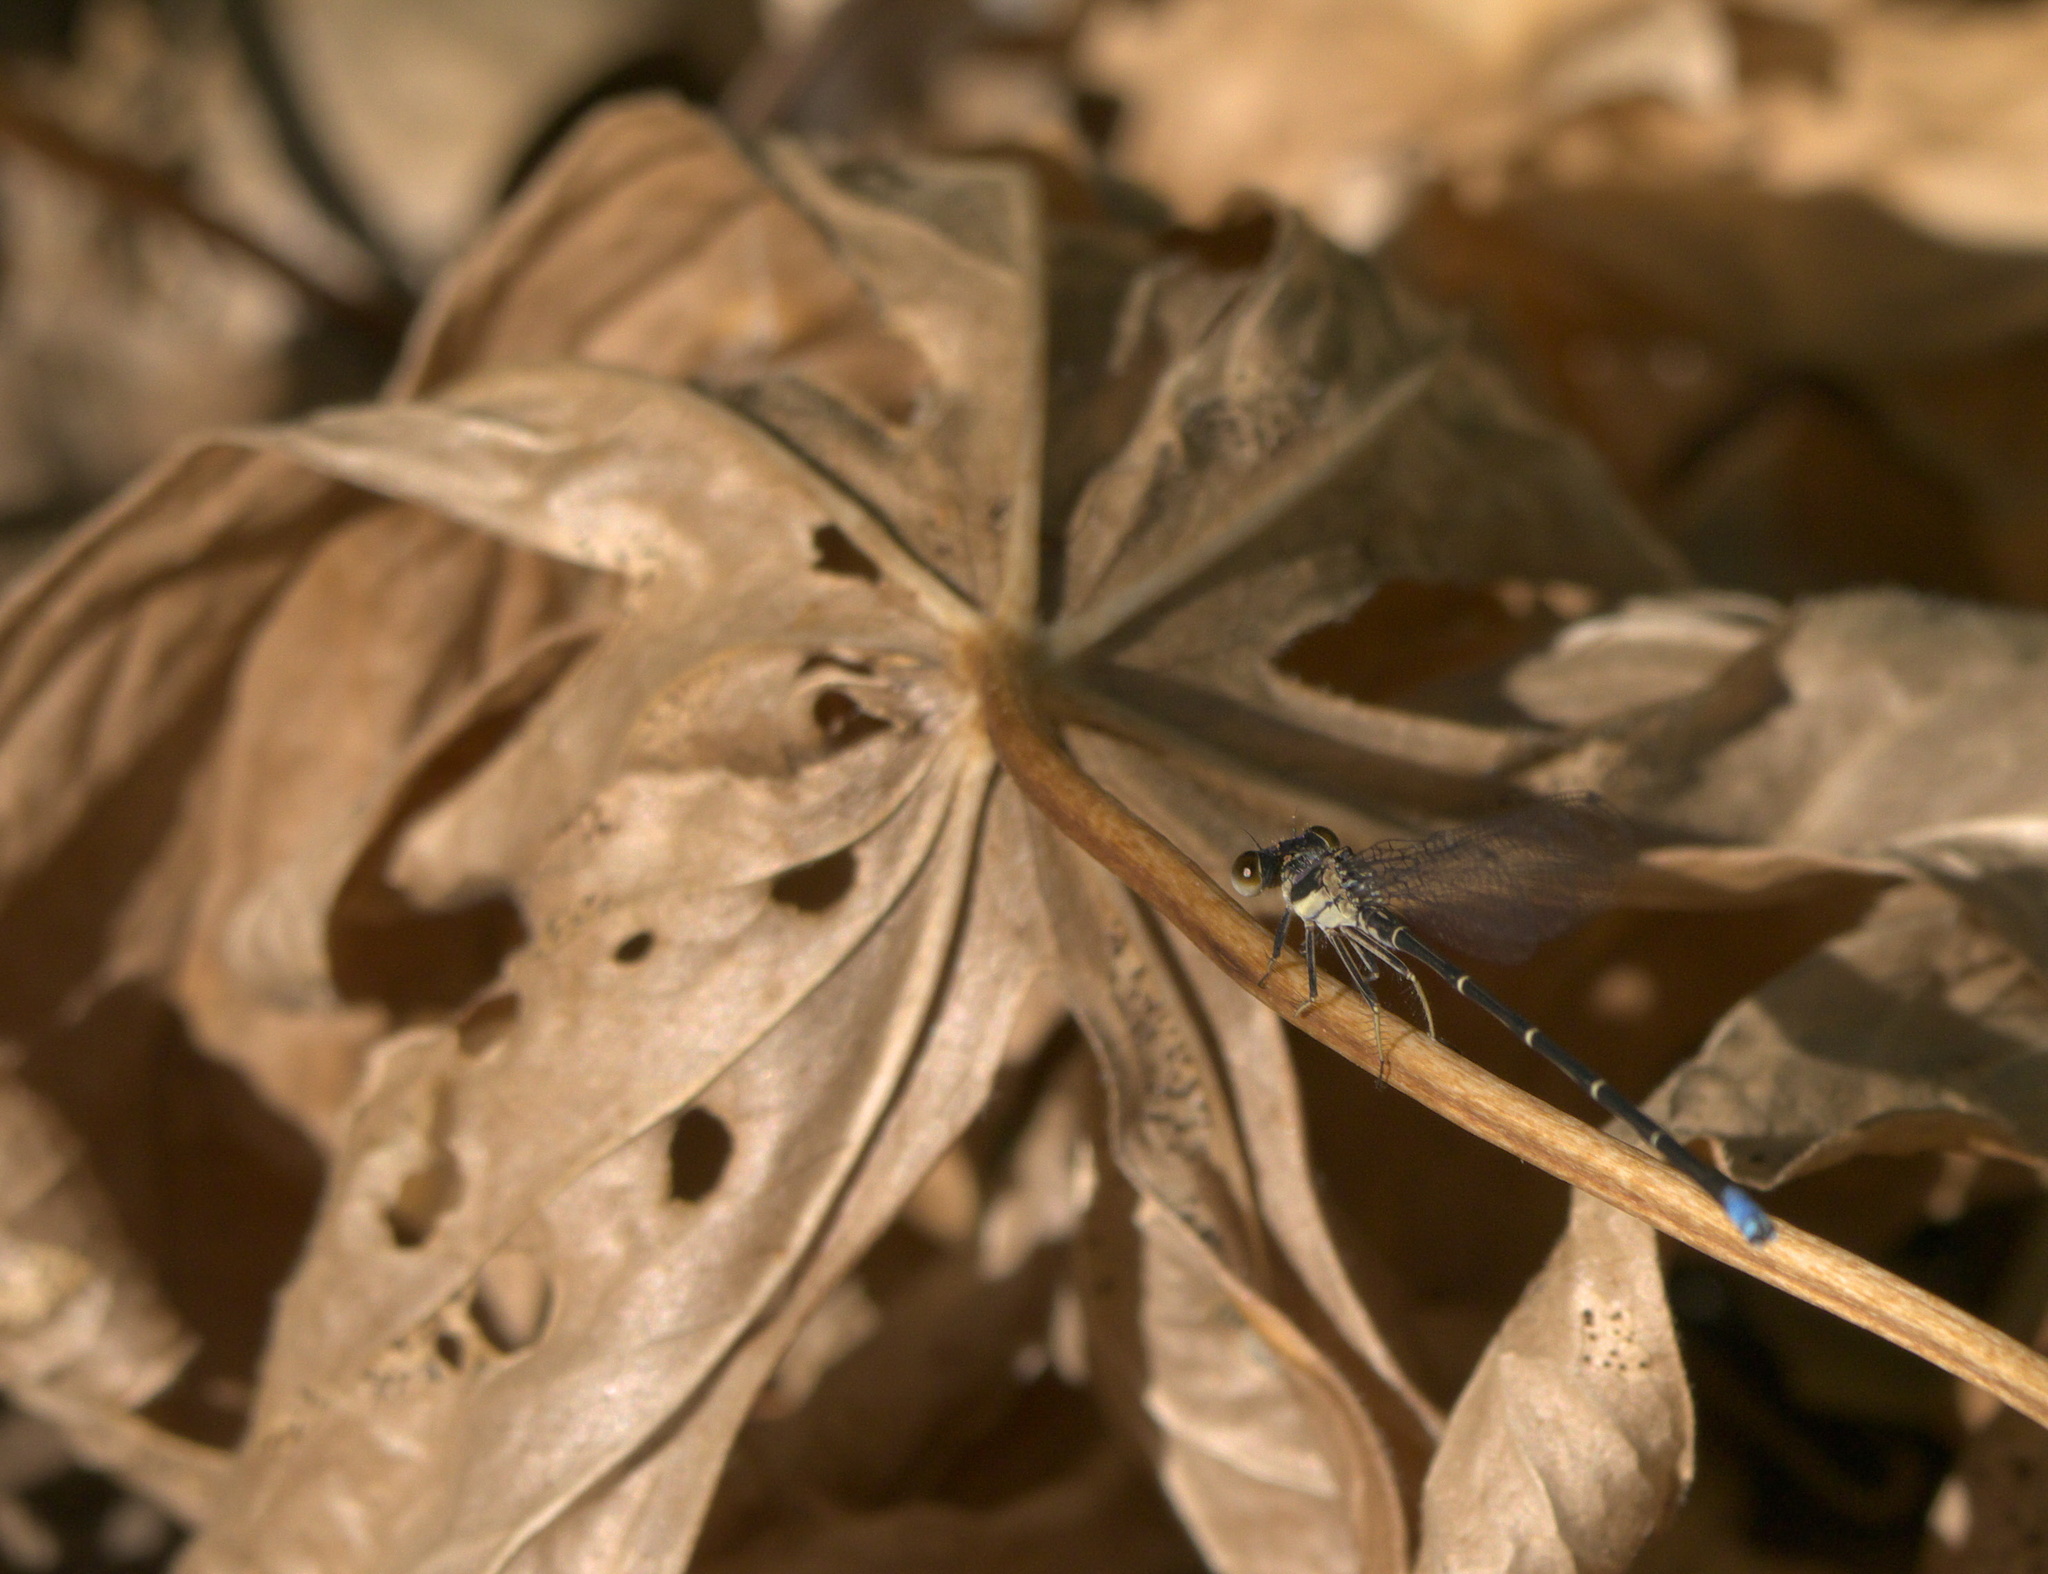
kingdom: Animalia
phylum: Arthropoda
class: Insecta
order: Odonata
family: Coenagrionidae
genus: Argia
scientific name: Argia tibialis
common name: Blue-tipped dancer
